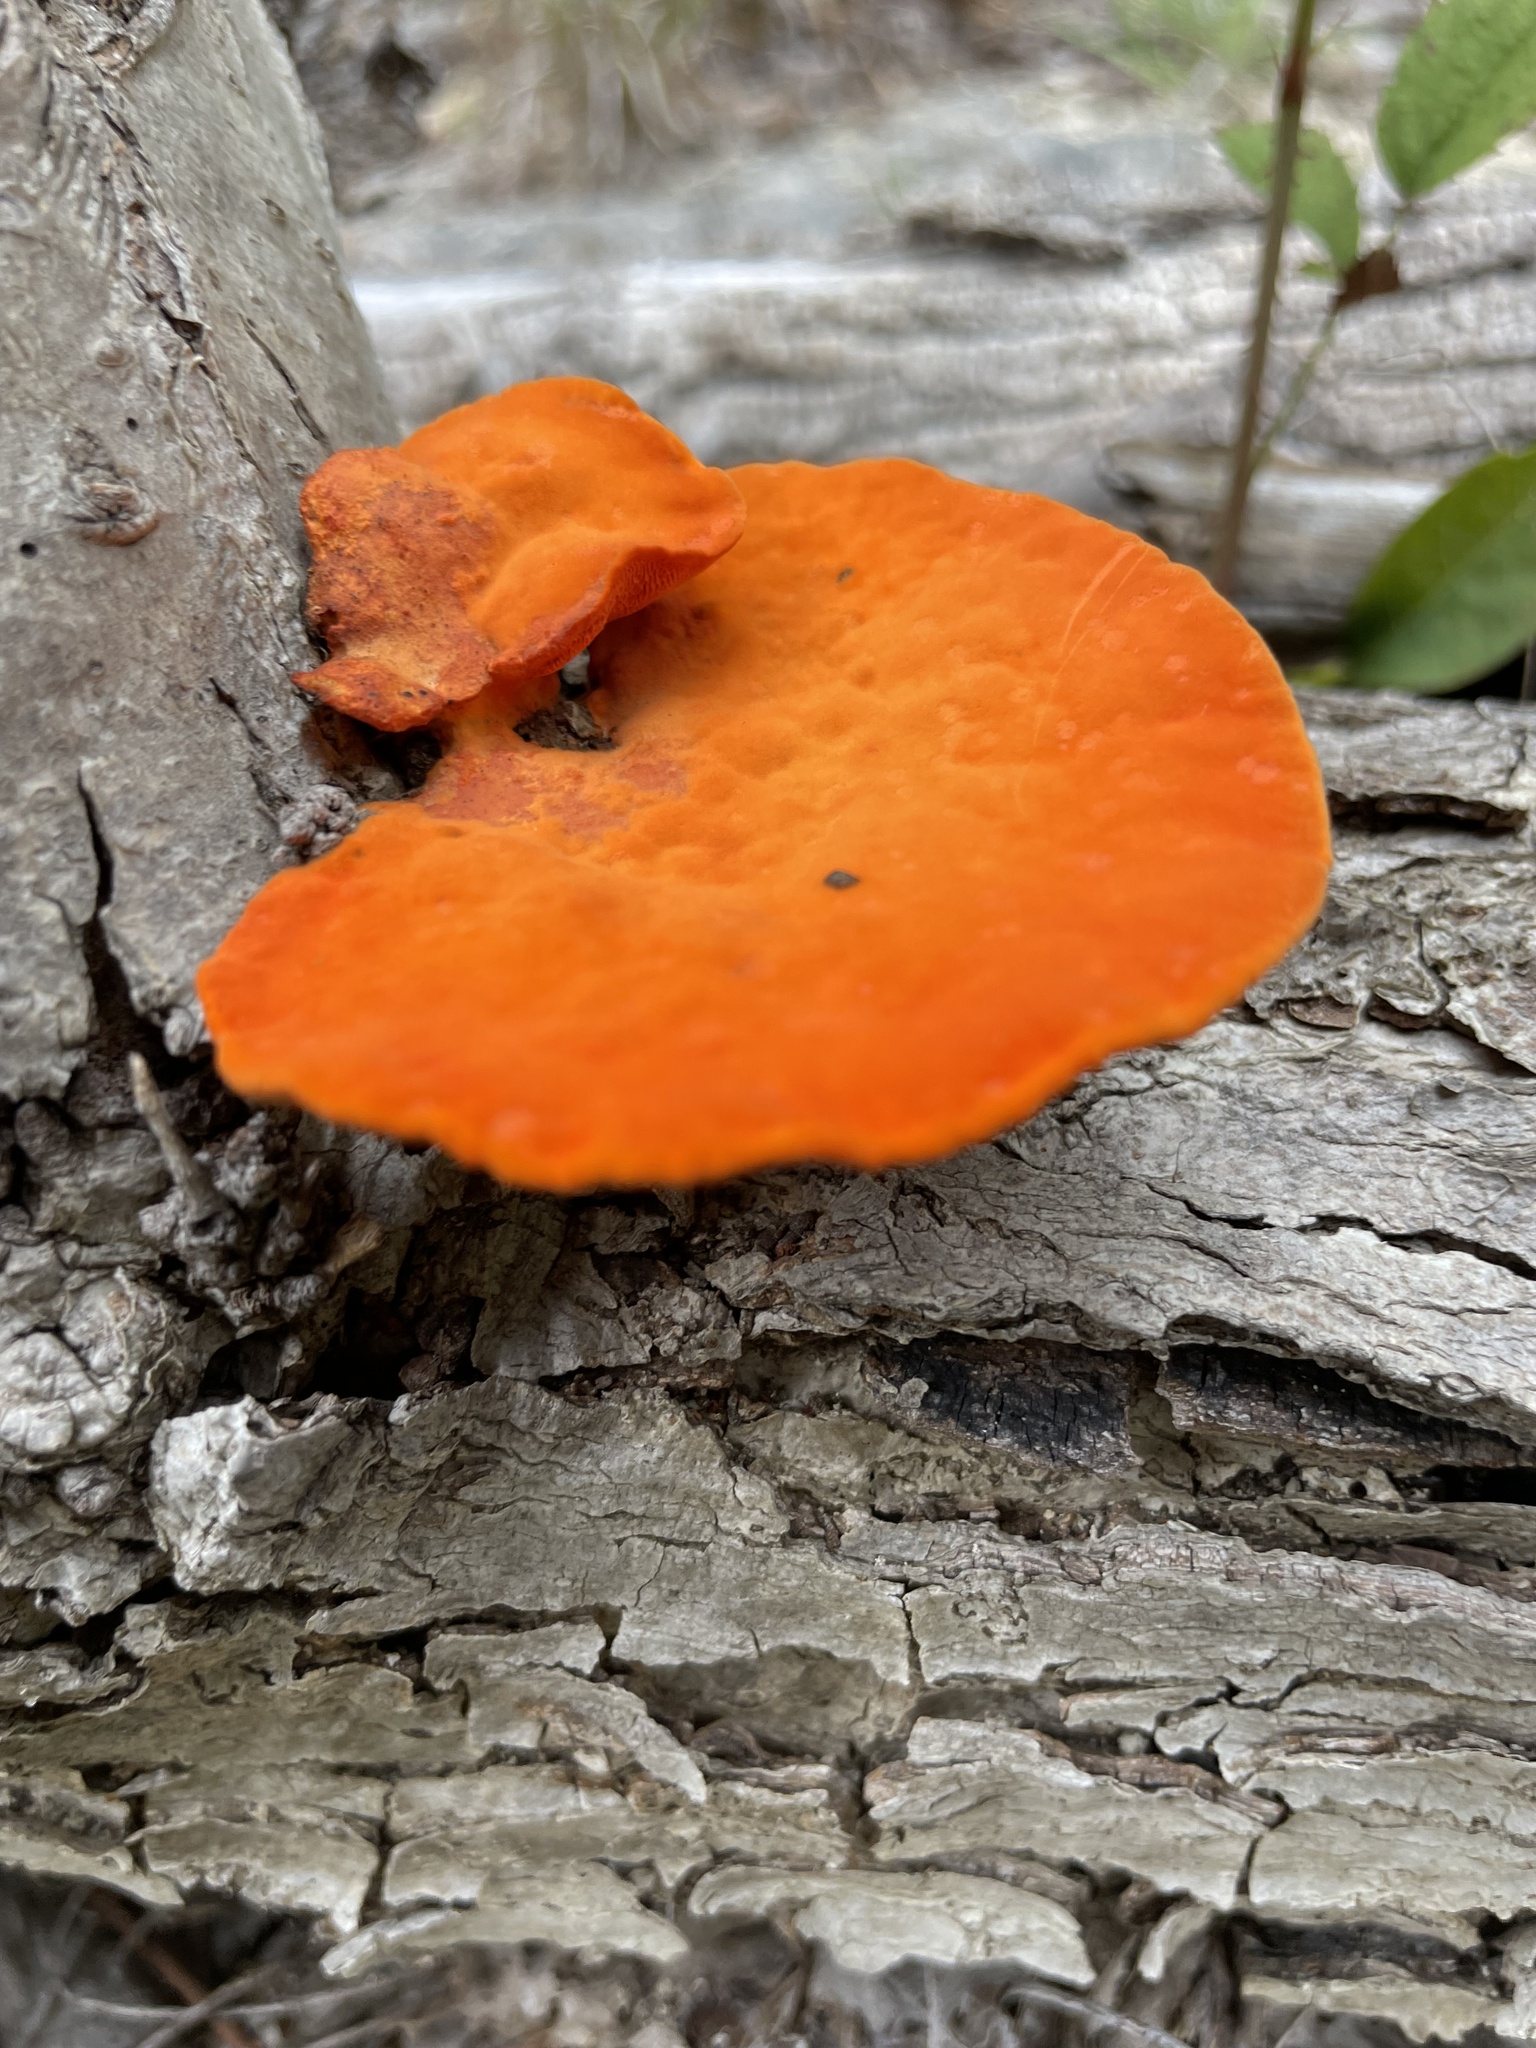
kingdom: Fungi
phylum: Basidiomycota
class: Agaricomycetes
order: Polyporales
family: Polyporaceae
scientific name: Polyporaceae
